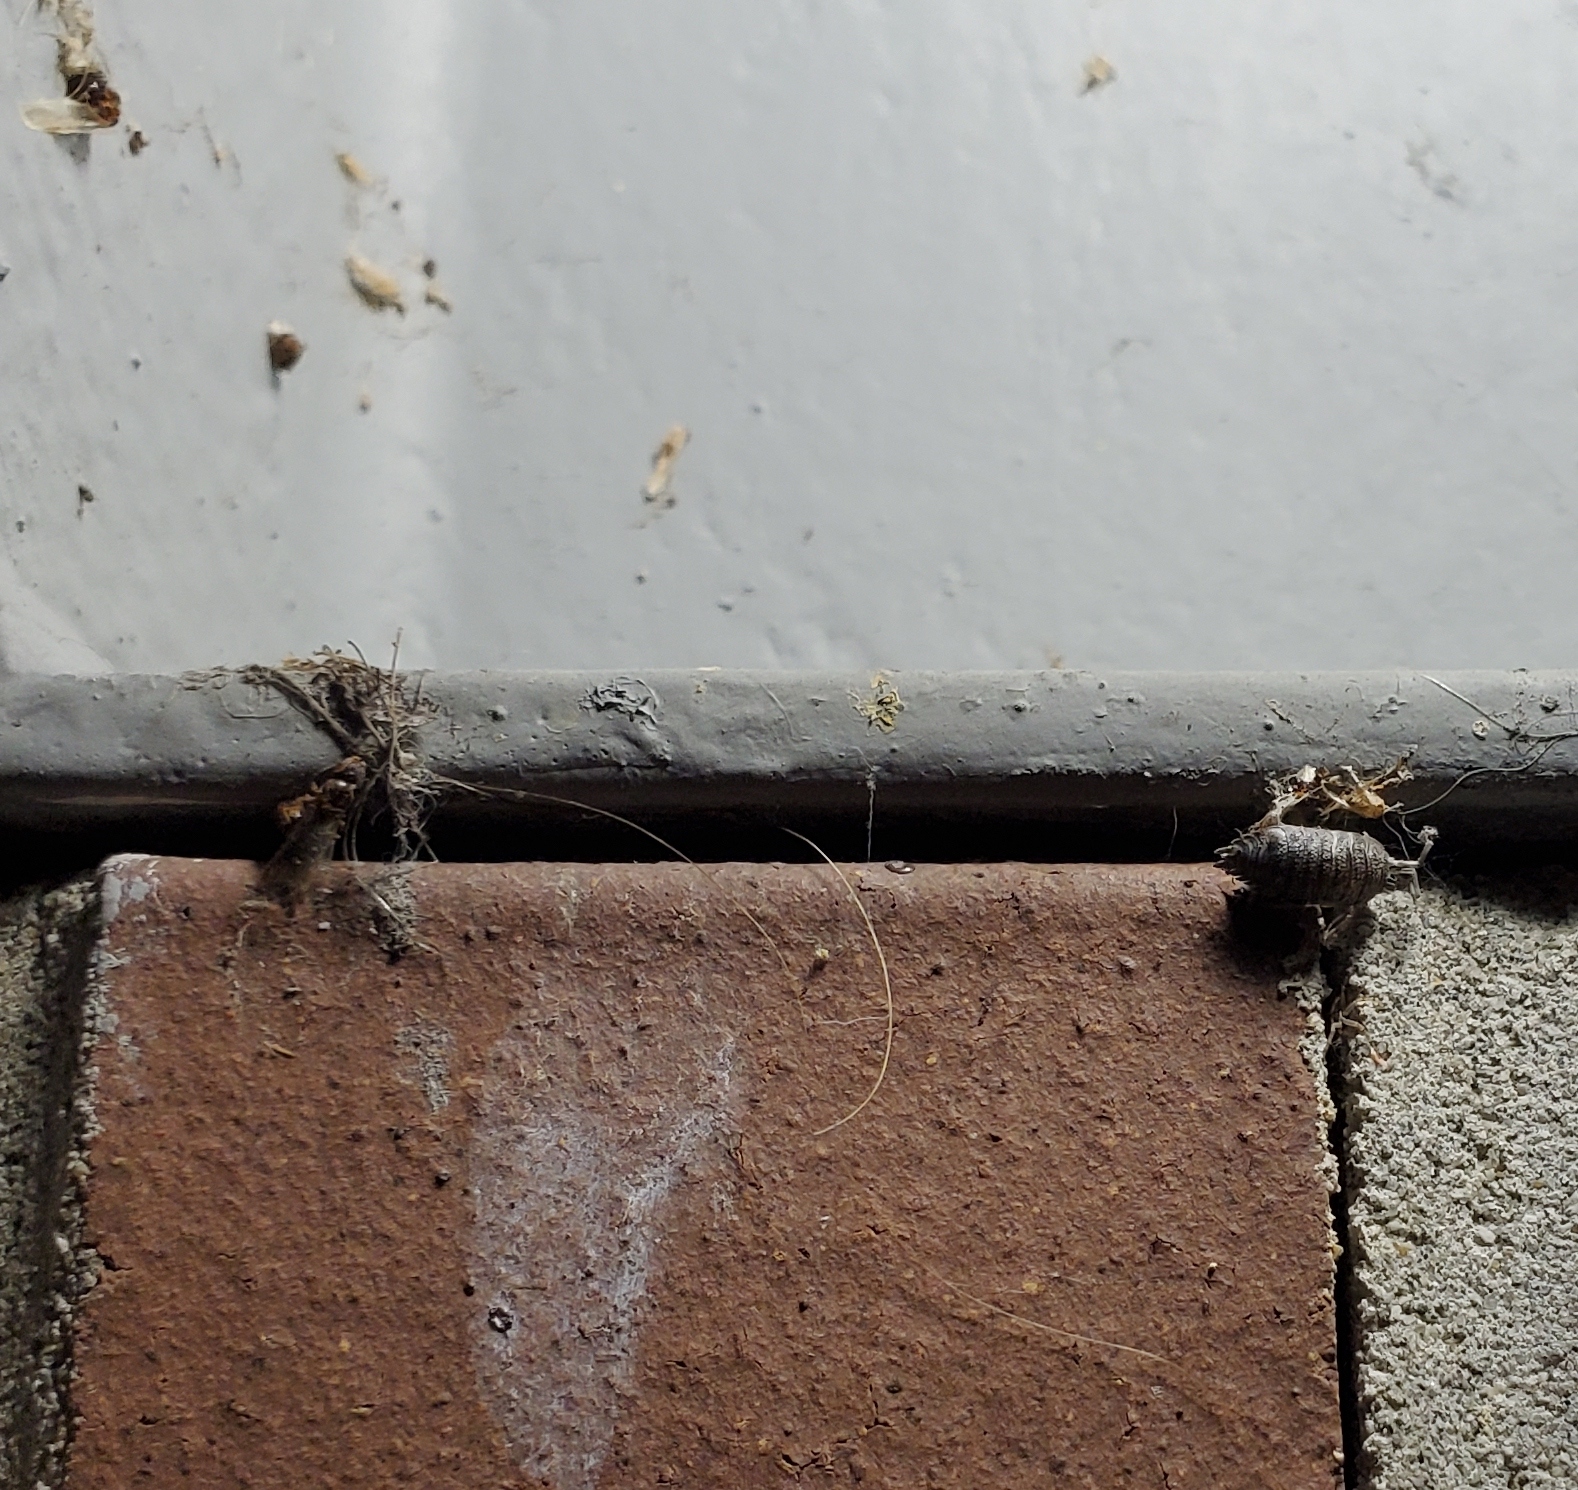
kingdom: Animalia
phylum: Arthropoda
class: Malacostraca
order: Isopoda
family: Porcellionidae
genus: Porcellio
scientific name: Porcellio scaber
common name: Common rough woodlouse
